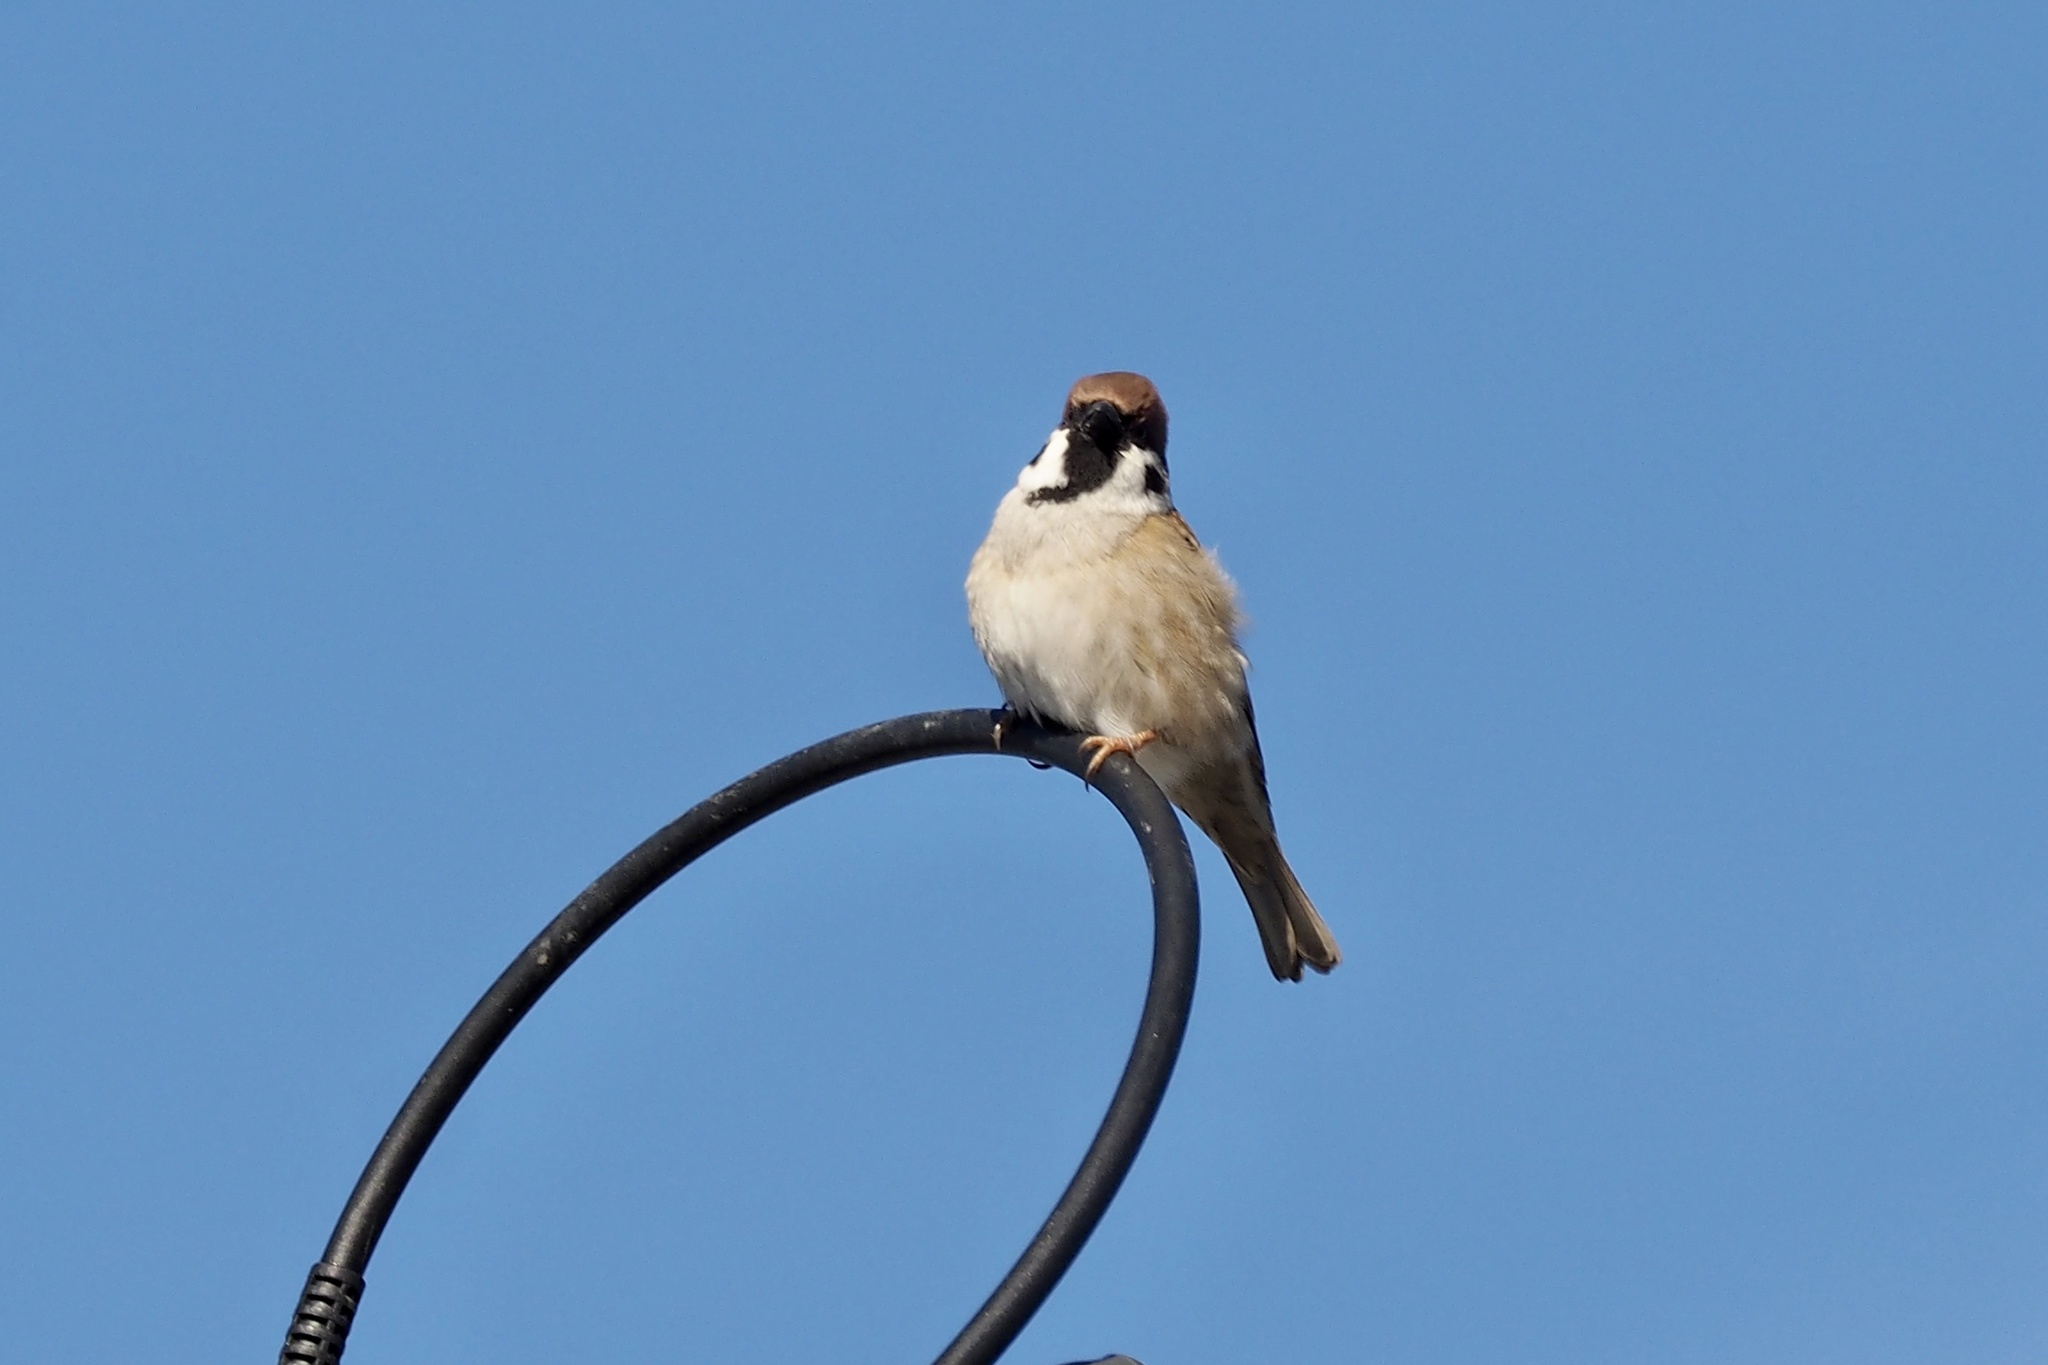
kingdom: Animalia
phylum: Chordata
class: Aves
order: Passeriformes
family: Passeridae
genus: Passer
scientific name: Passer montanus
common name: Eurasian tree sparrow
